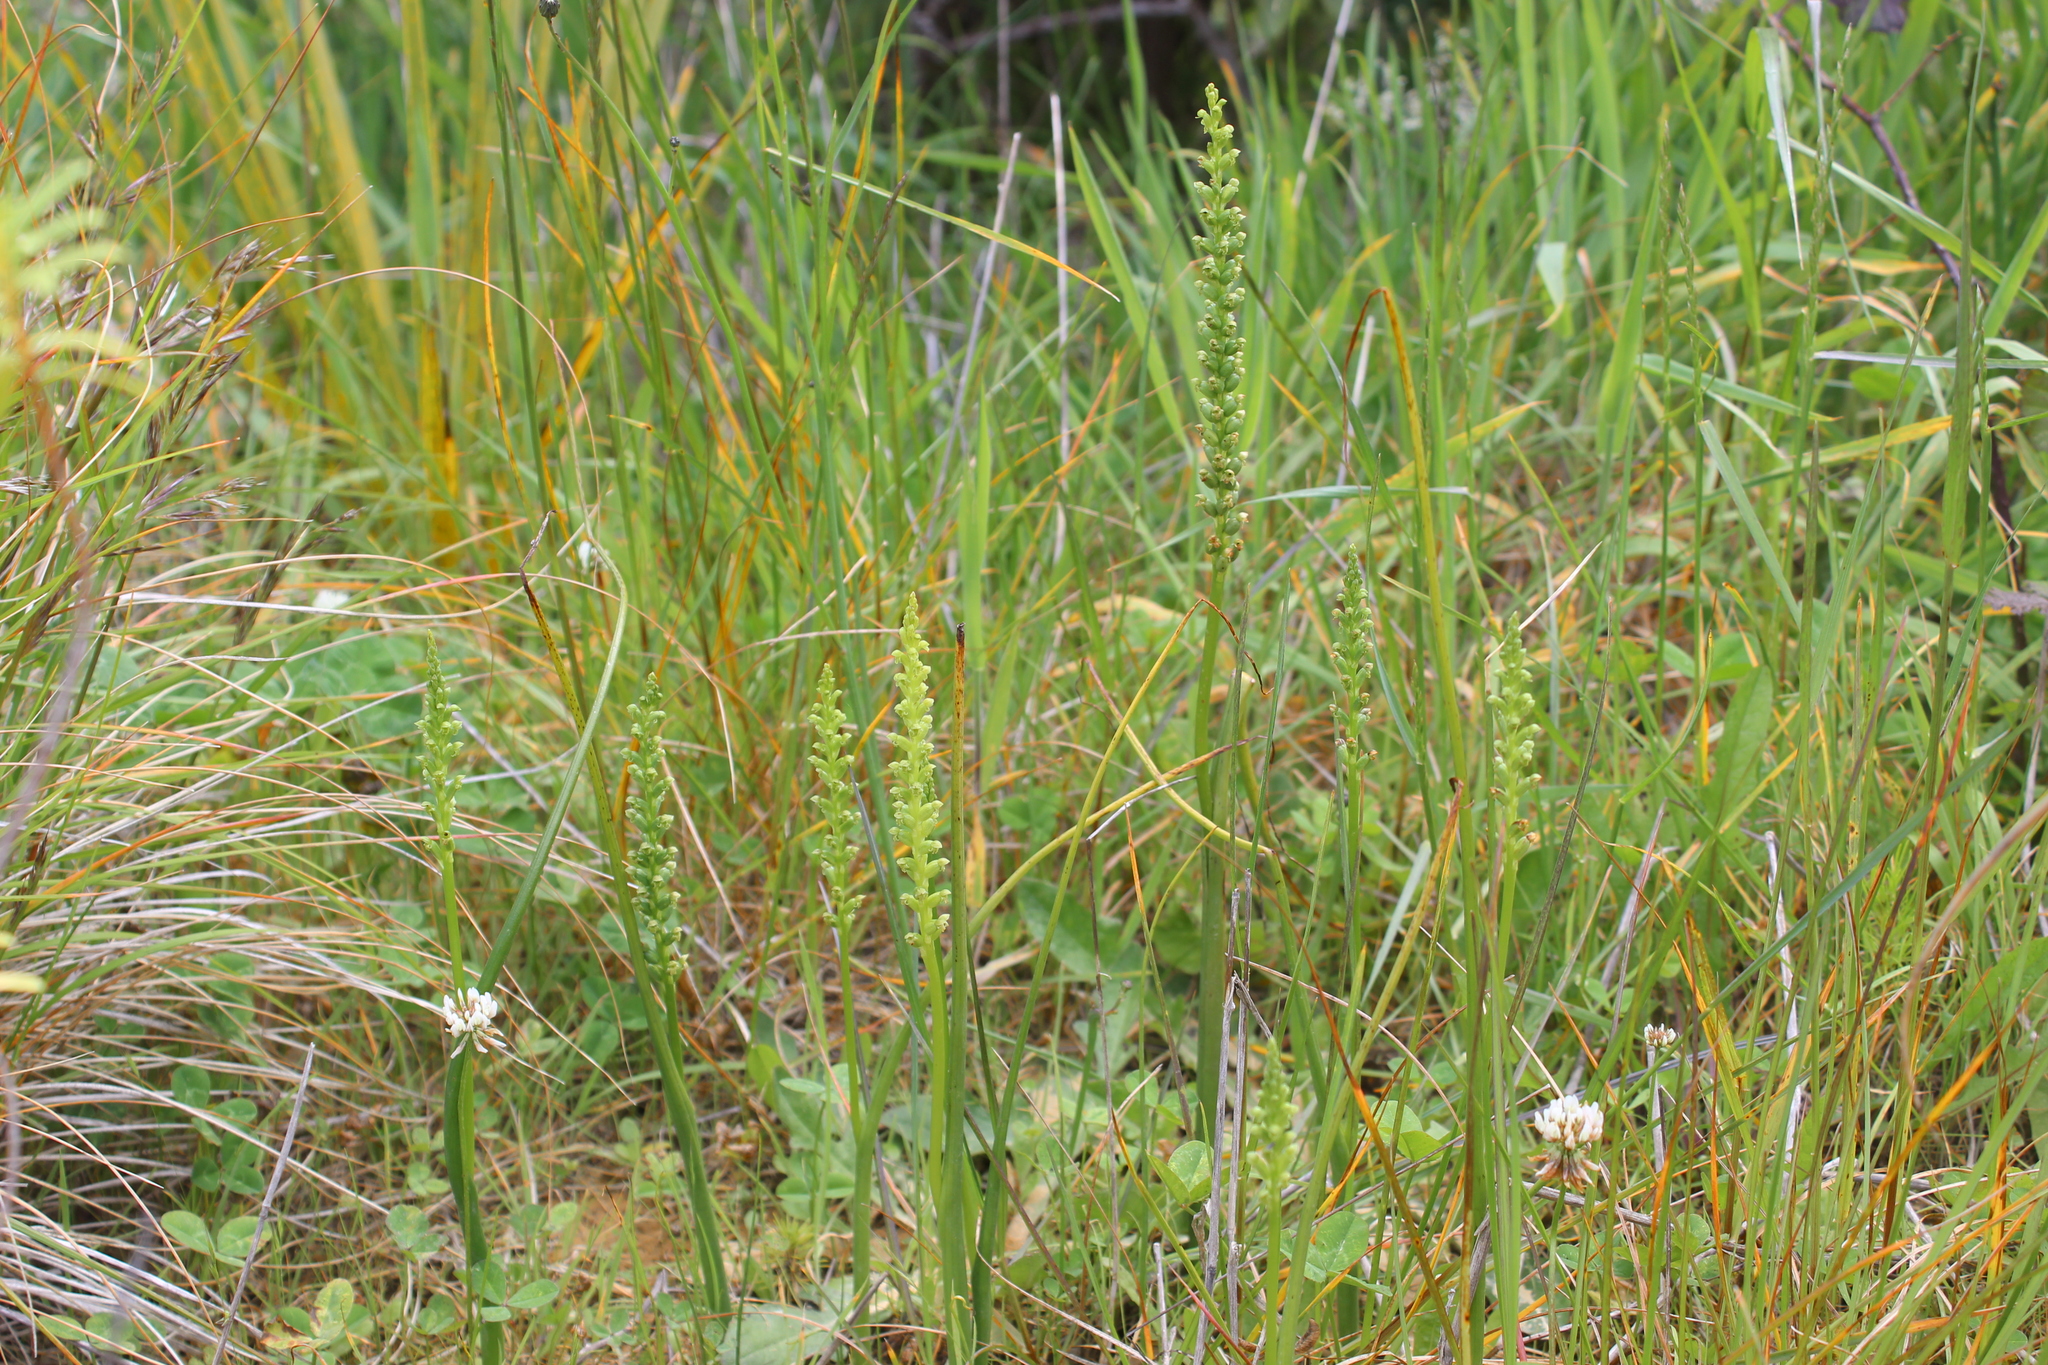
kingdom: Plantae
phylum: Tracheophyta
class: Liliopsida
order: Asparagales
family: Orchidaceae
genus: Microtis
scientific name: Microtis unifolia
